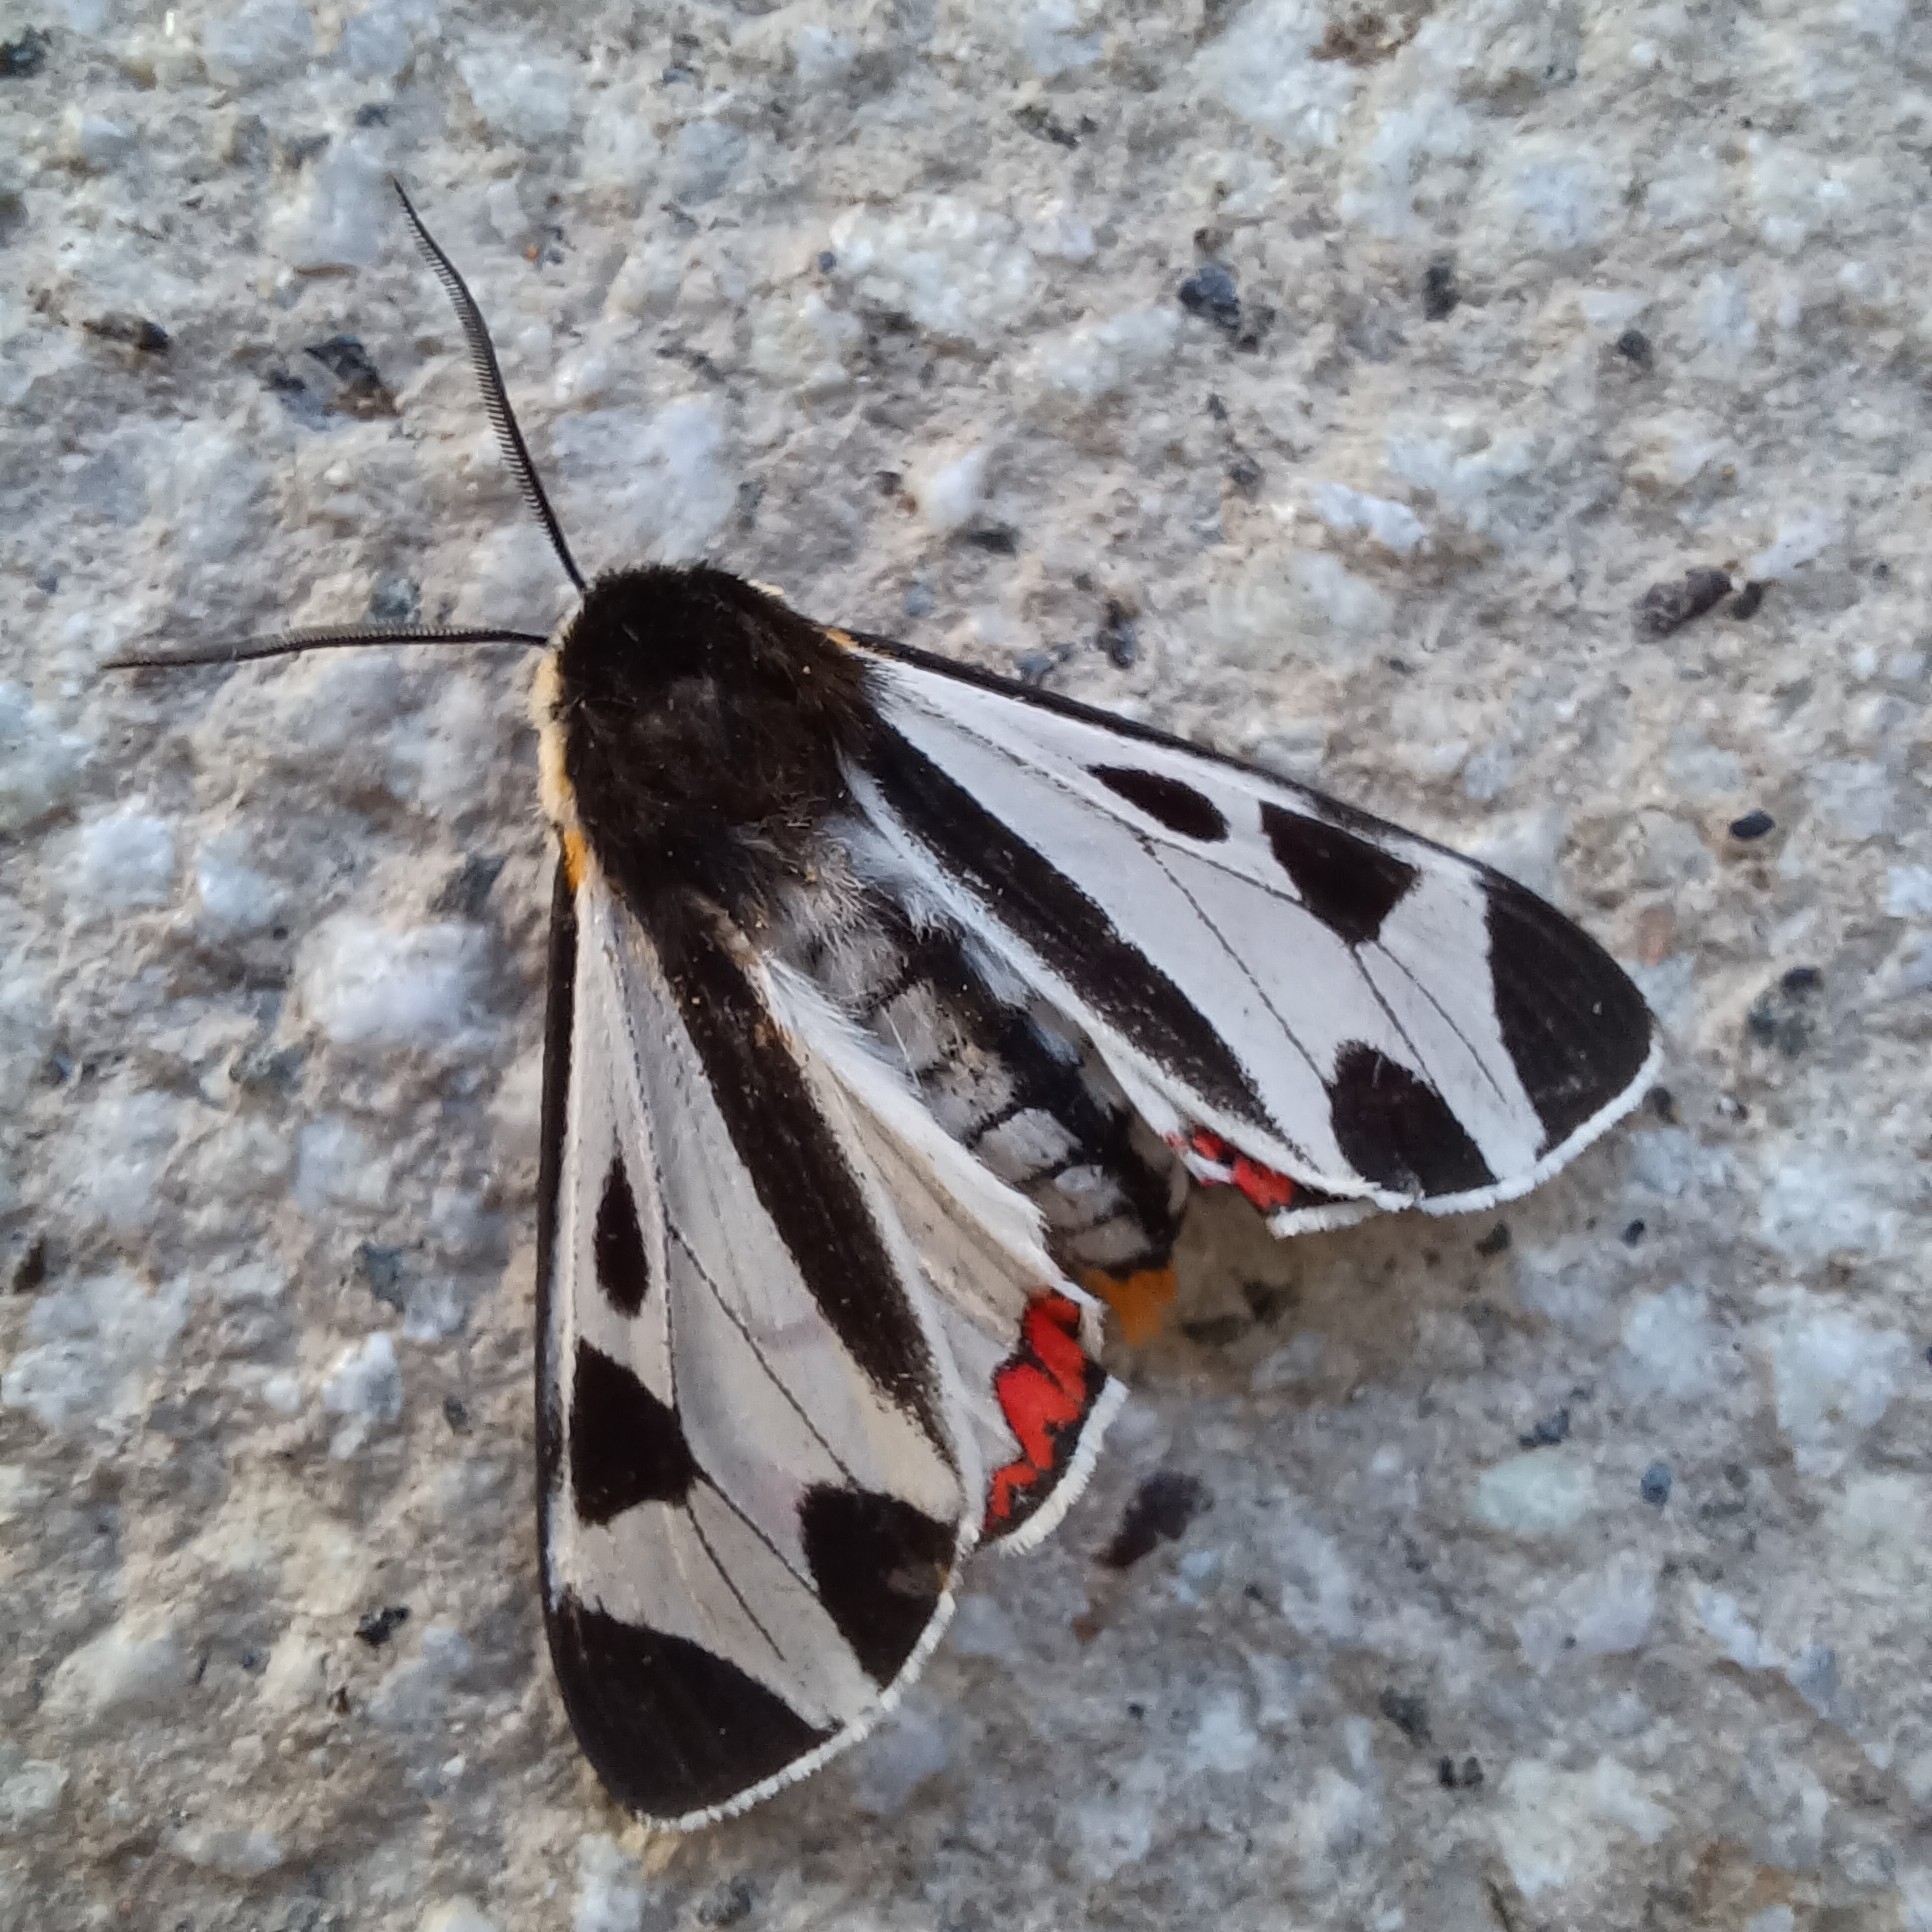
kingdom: Animalia
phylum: Arthropoda
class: Insecta
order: Lepidoptera
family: Erebidae
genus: Dysschema
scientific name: Dysschema centenaria
